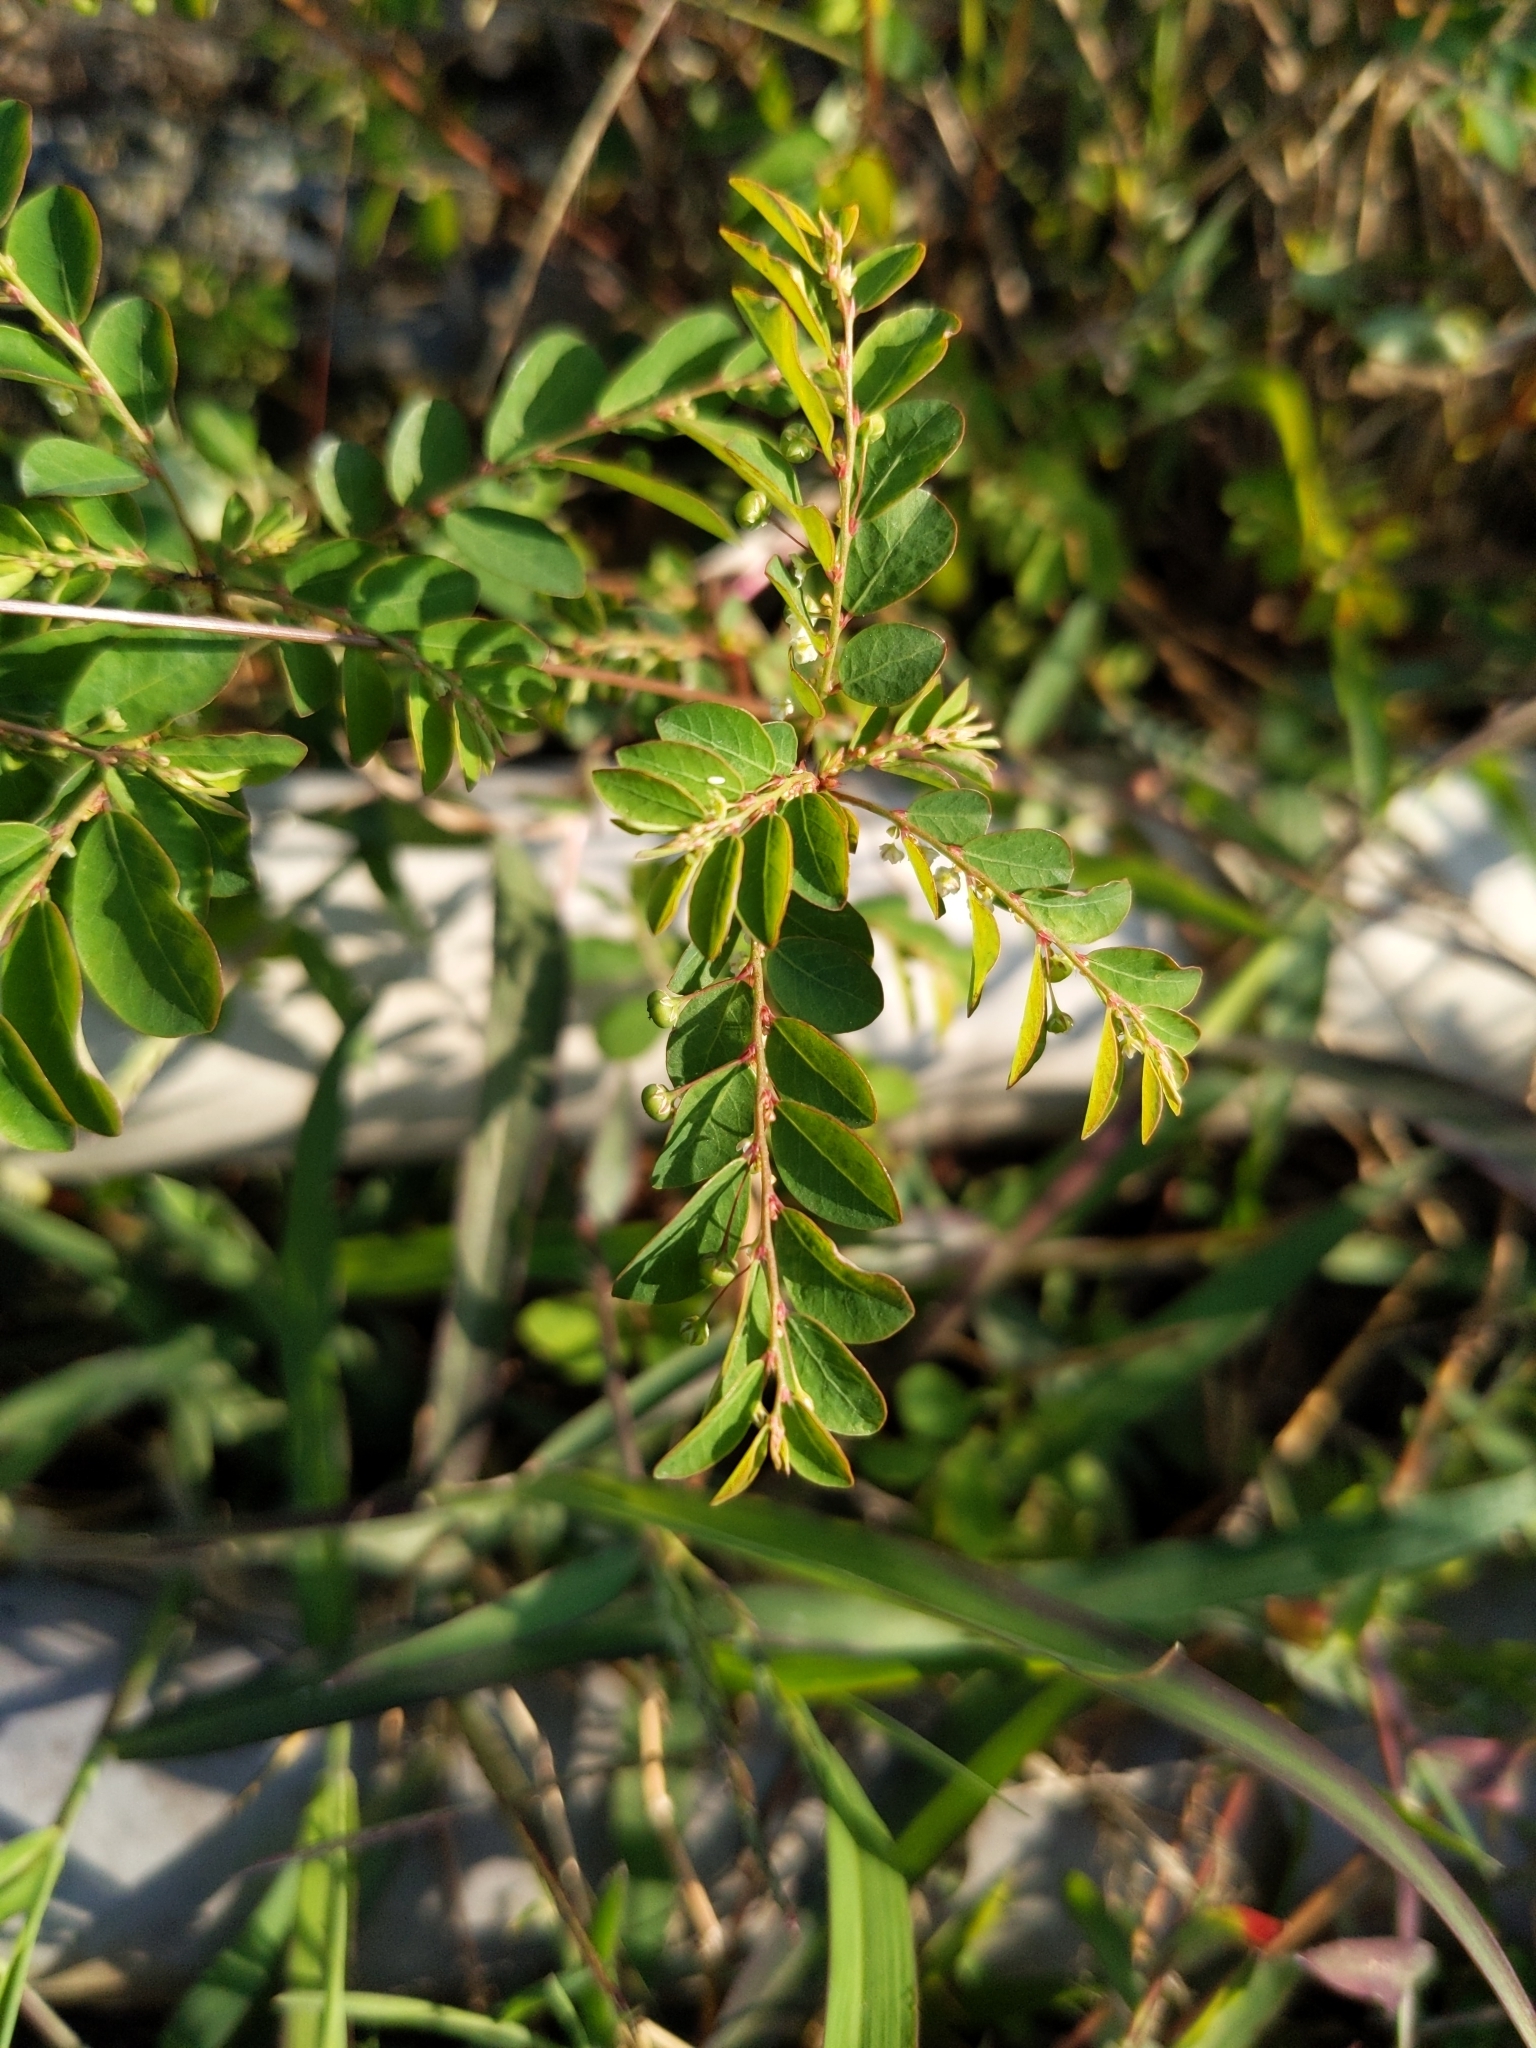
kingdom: Plantae
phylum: Tracheophyta
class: Magnoliopsida
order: Malpighiales
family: Phyllanthaceae
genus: Phyllanthus
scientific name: Phyllanthus tenellus
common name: Mascarene island leaf-flower
